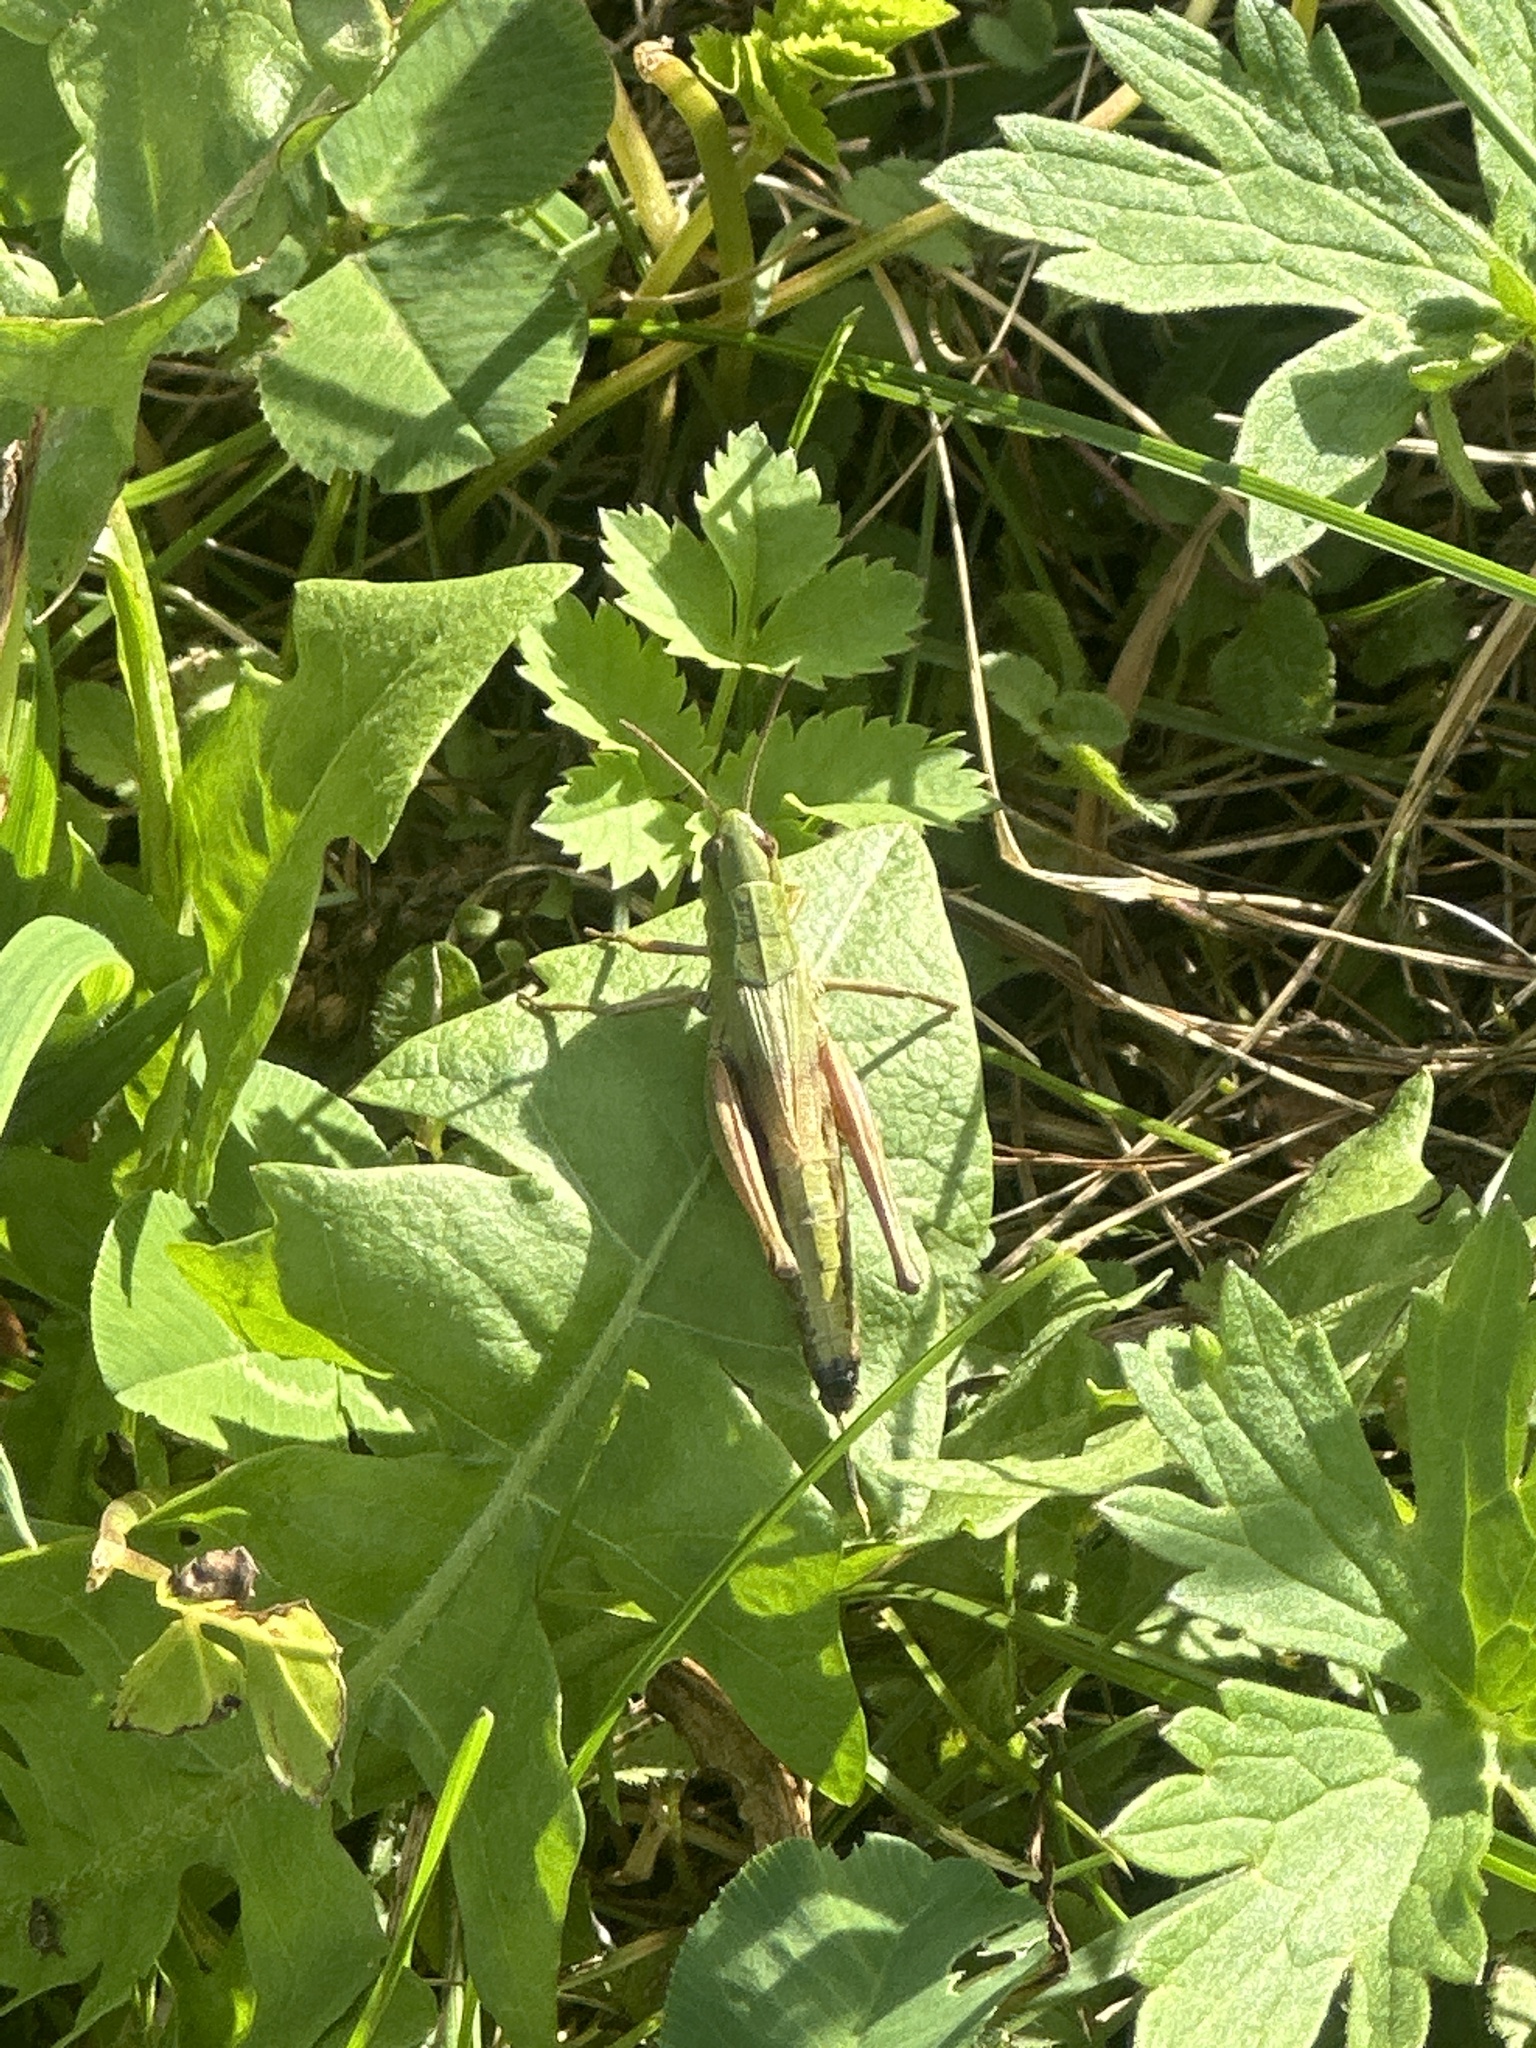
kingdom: Animalia
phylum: Arthropoda
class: Insecta
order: Orthoptera
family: Acrididae
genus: Pseudochorthippus
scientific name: Pseudochorthippus parallelus
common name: Meadow grasshopper
